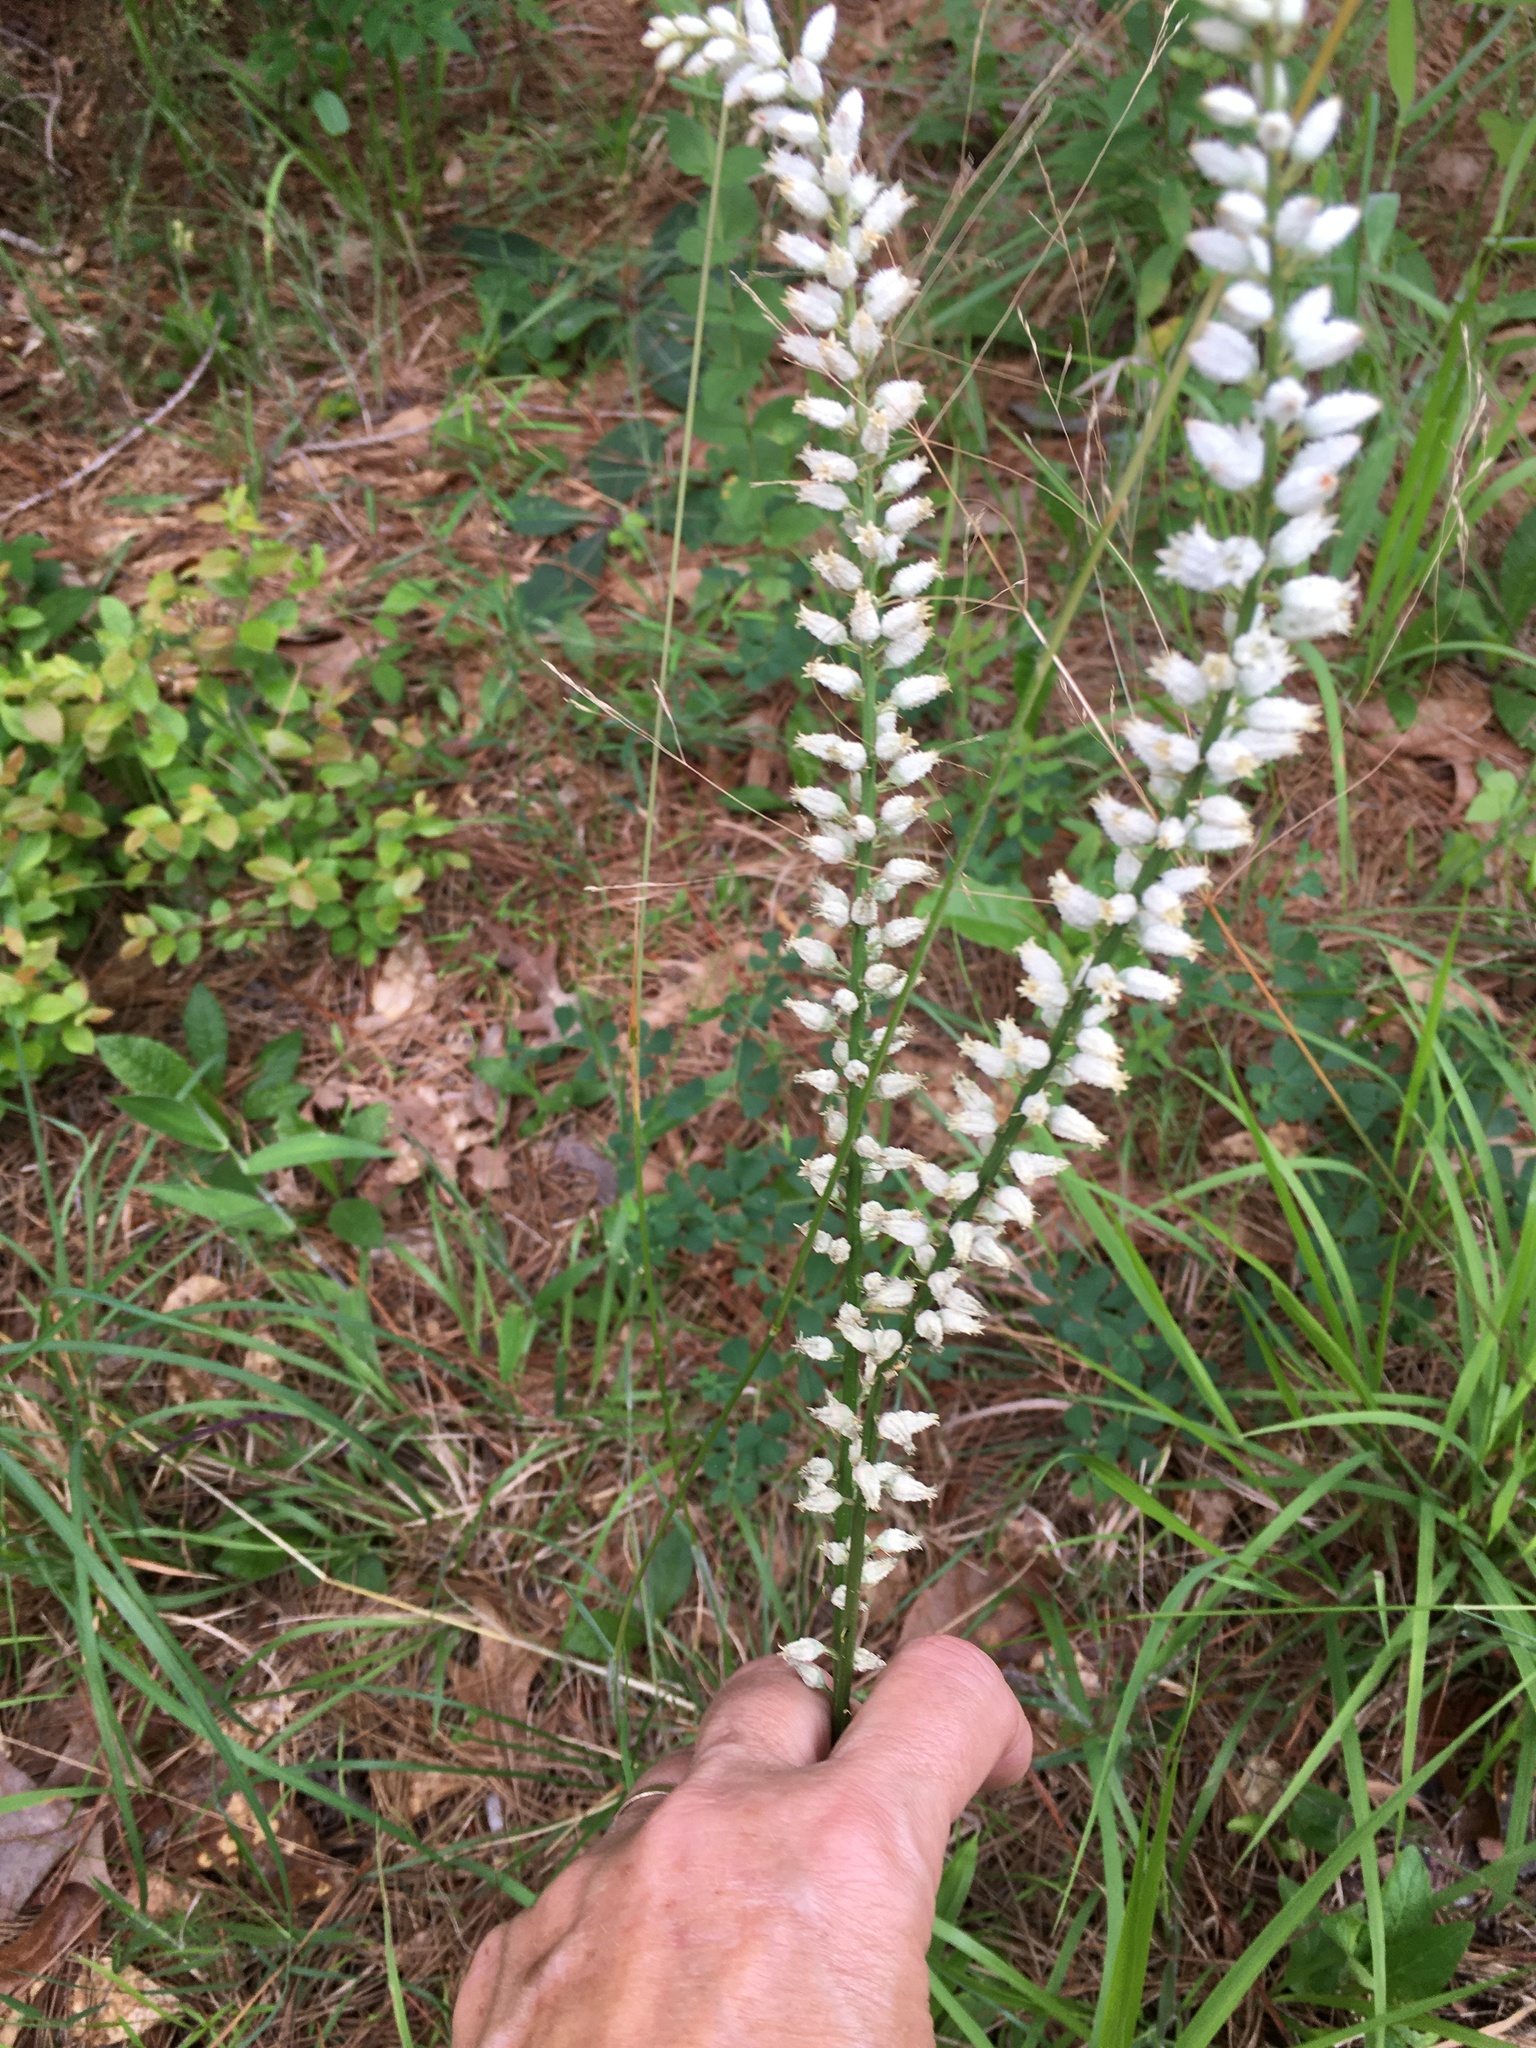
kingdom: Plantae
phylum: Tracheophyta
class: Liliopsida
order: Dioscoreales
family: Nartheciaceae
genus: Aletris
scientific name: Aletris farinosa
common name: Colicroot
